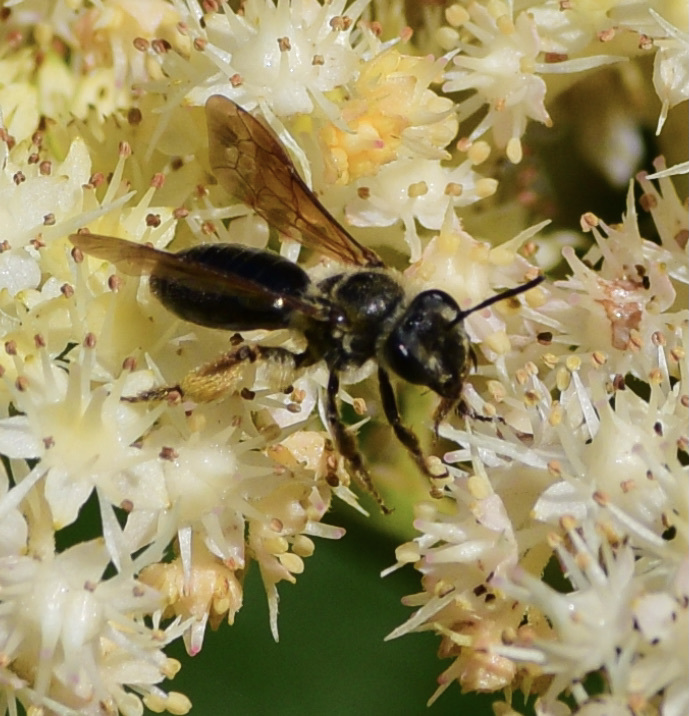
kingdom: Animalia
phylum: Arthropoda
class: Insecta
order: Hymenoptera
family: Andrenidae
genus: Andrena
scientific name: Andrena crataegi
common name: Hawthorn mining bee
